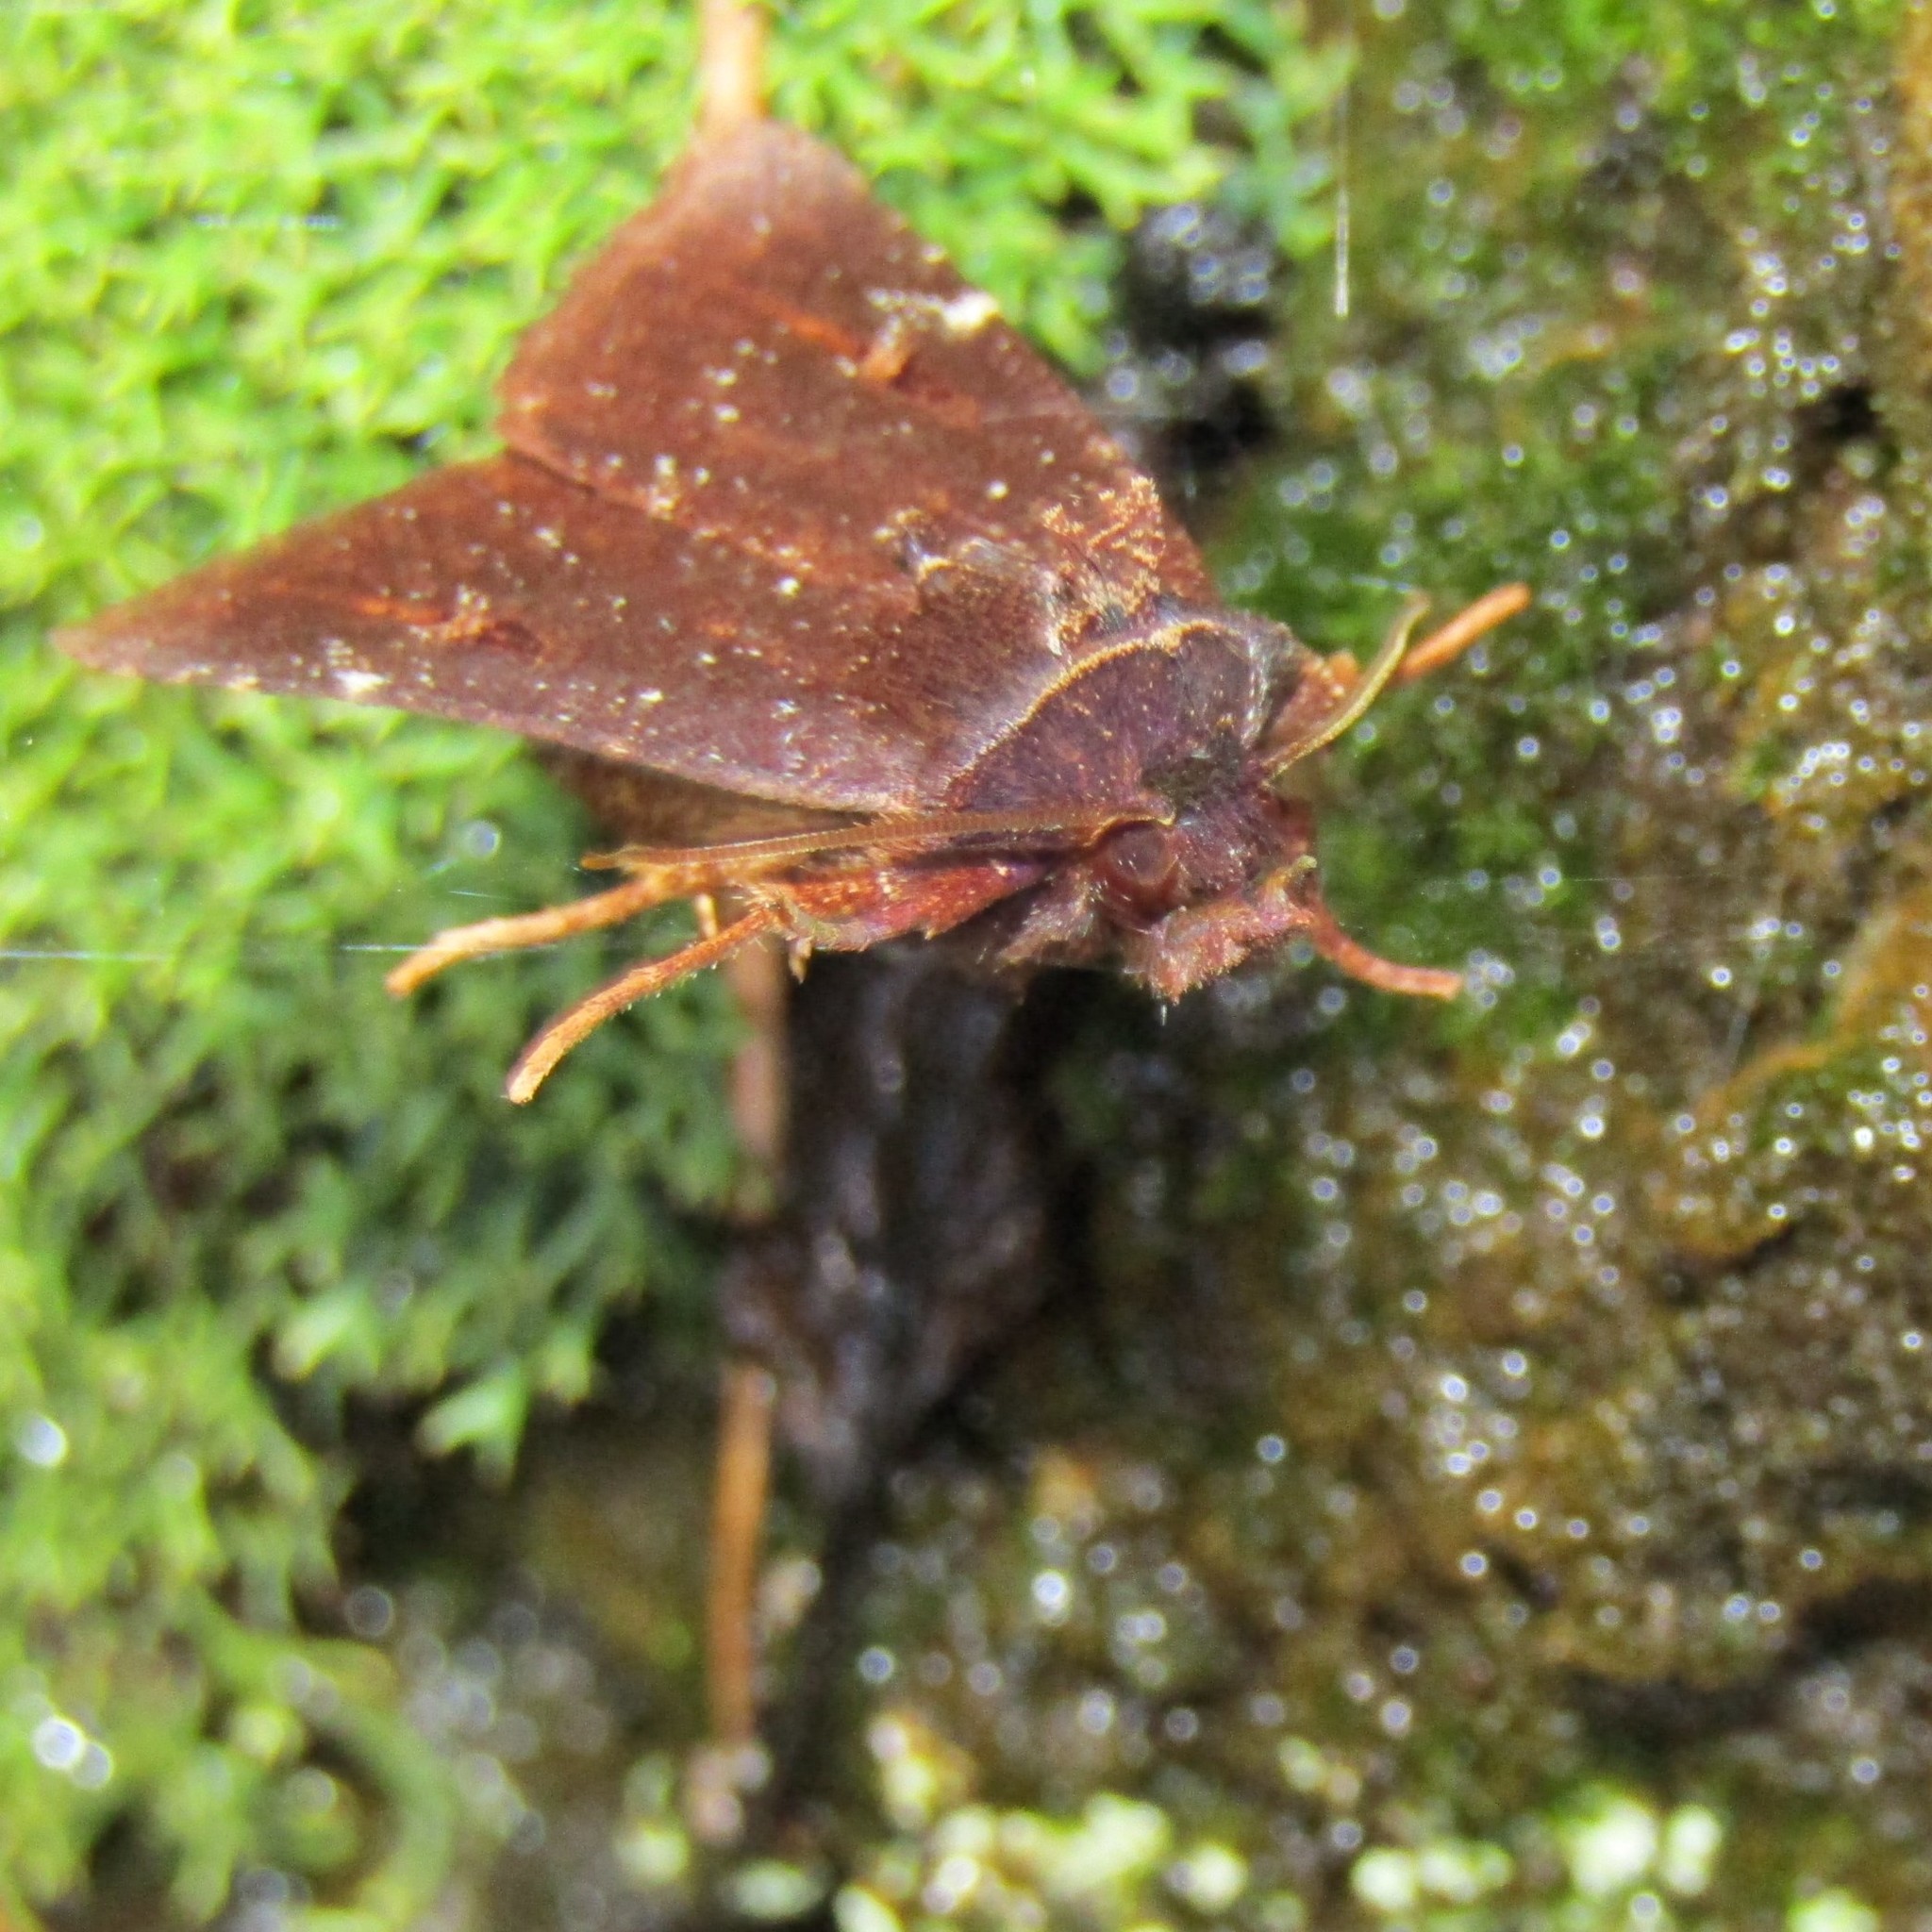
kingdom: Animalia
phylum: Arthropoda
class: Insecta
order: Lepidoptera
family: Noctuidae
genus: Austramathes
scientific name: Austramathes purpurea
